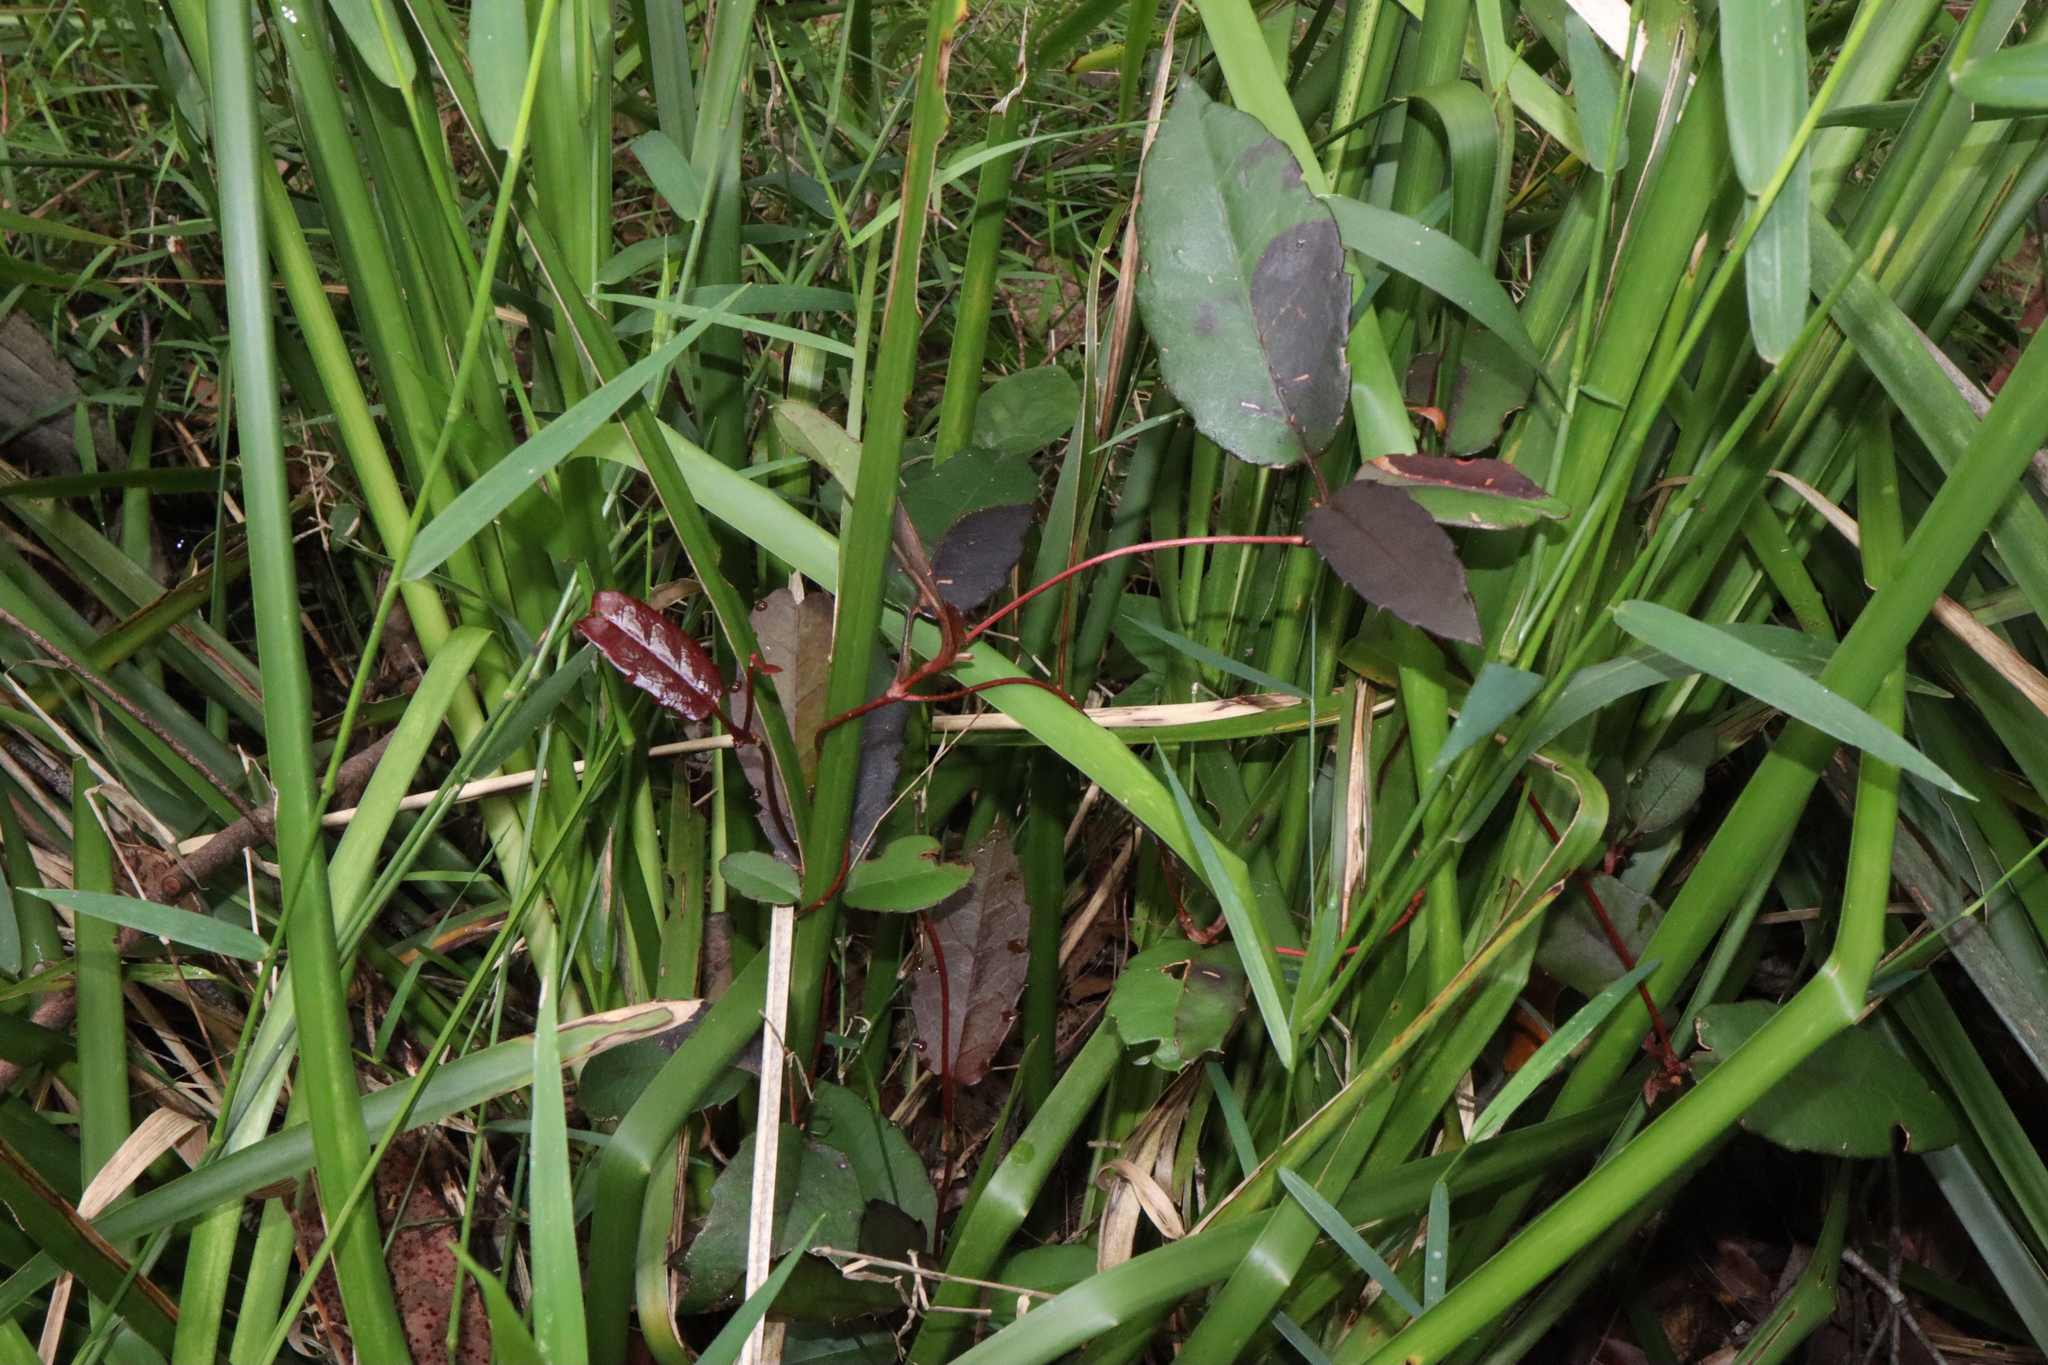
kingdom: Plantae
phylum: Tracheophyta
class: Magnoliopsida
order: Dilleniales
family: Dilleniaceae
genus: Hibbertia
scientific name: Hibbertia dentata
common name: Trailing guinea-flower
